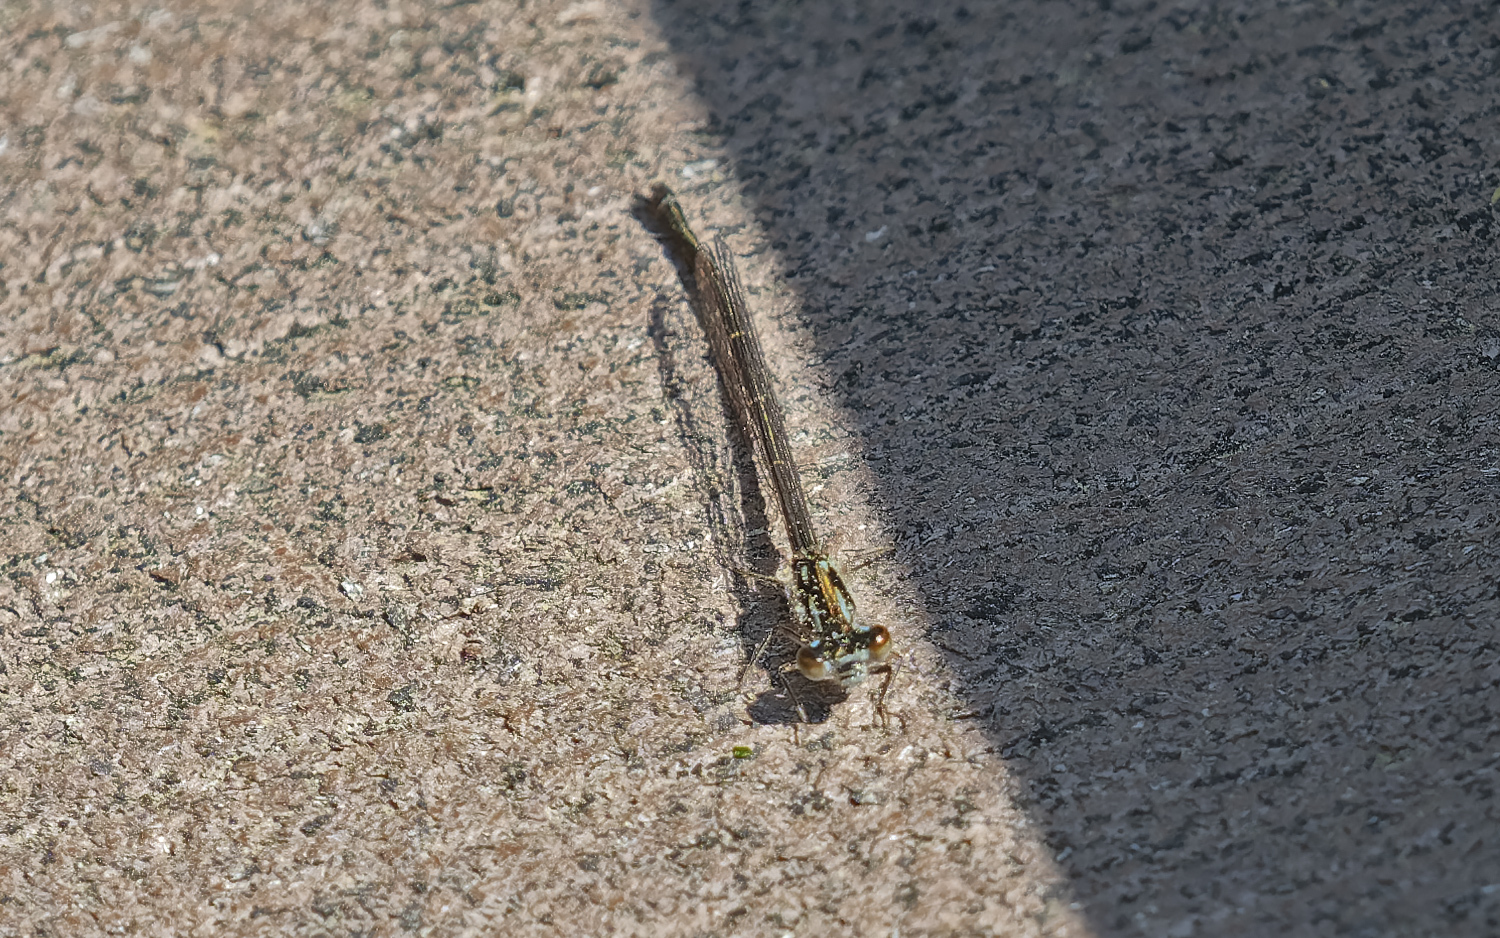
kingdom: Animalia
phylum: Arthropoda
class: Insecta
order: Odonata
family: Coenagrionidae
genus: Ischnura
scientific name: Ischnura posita
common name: Fragile forktail
